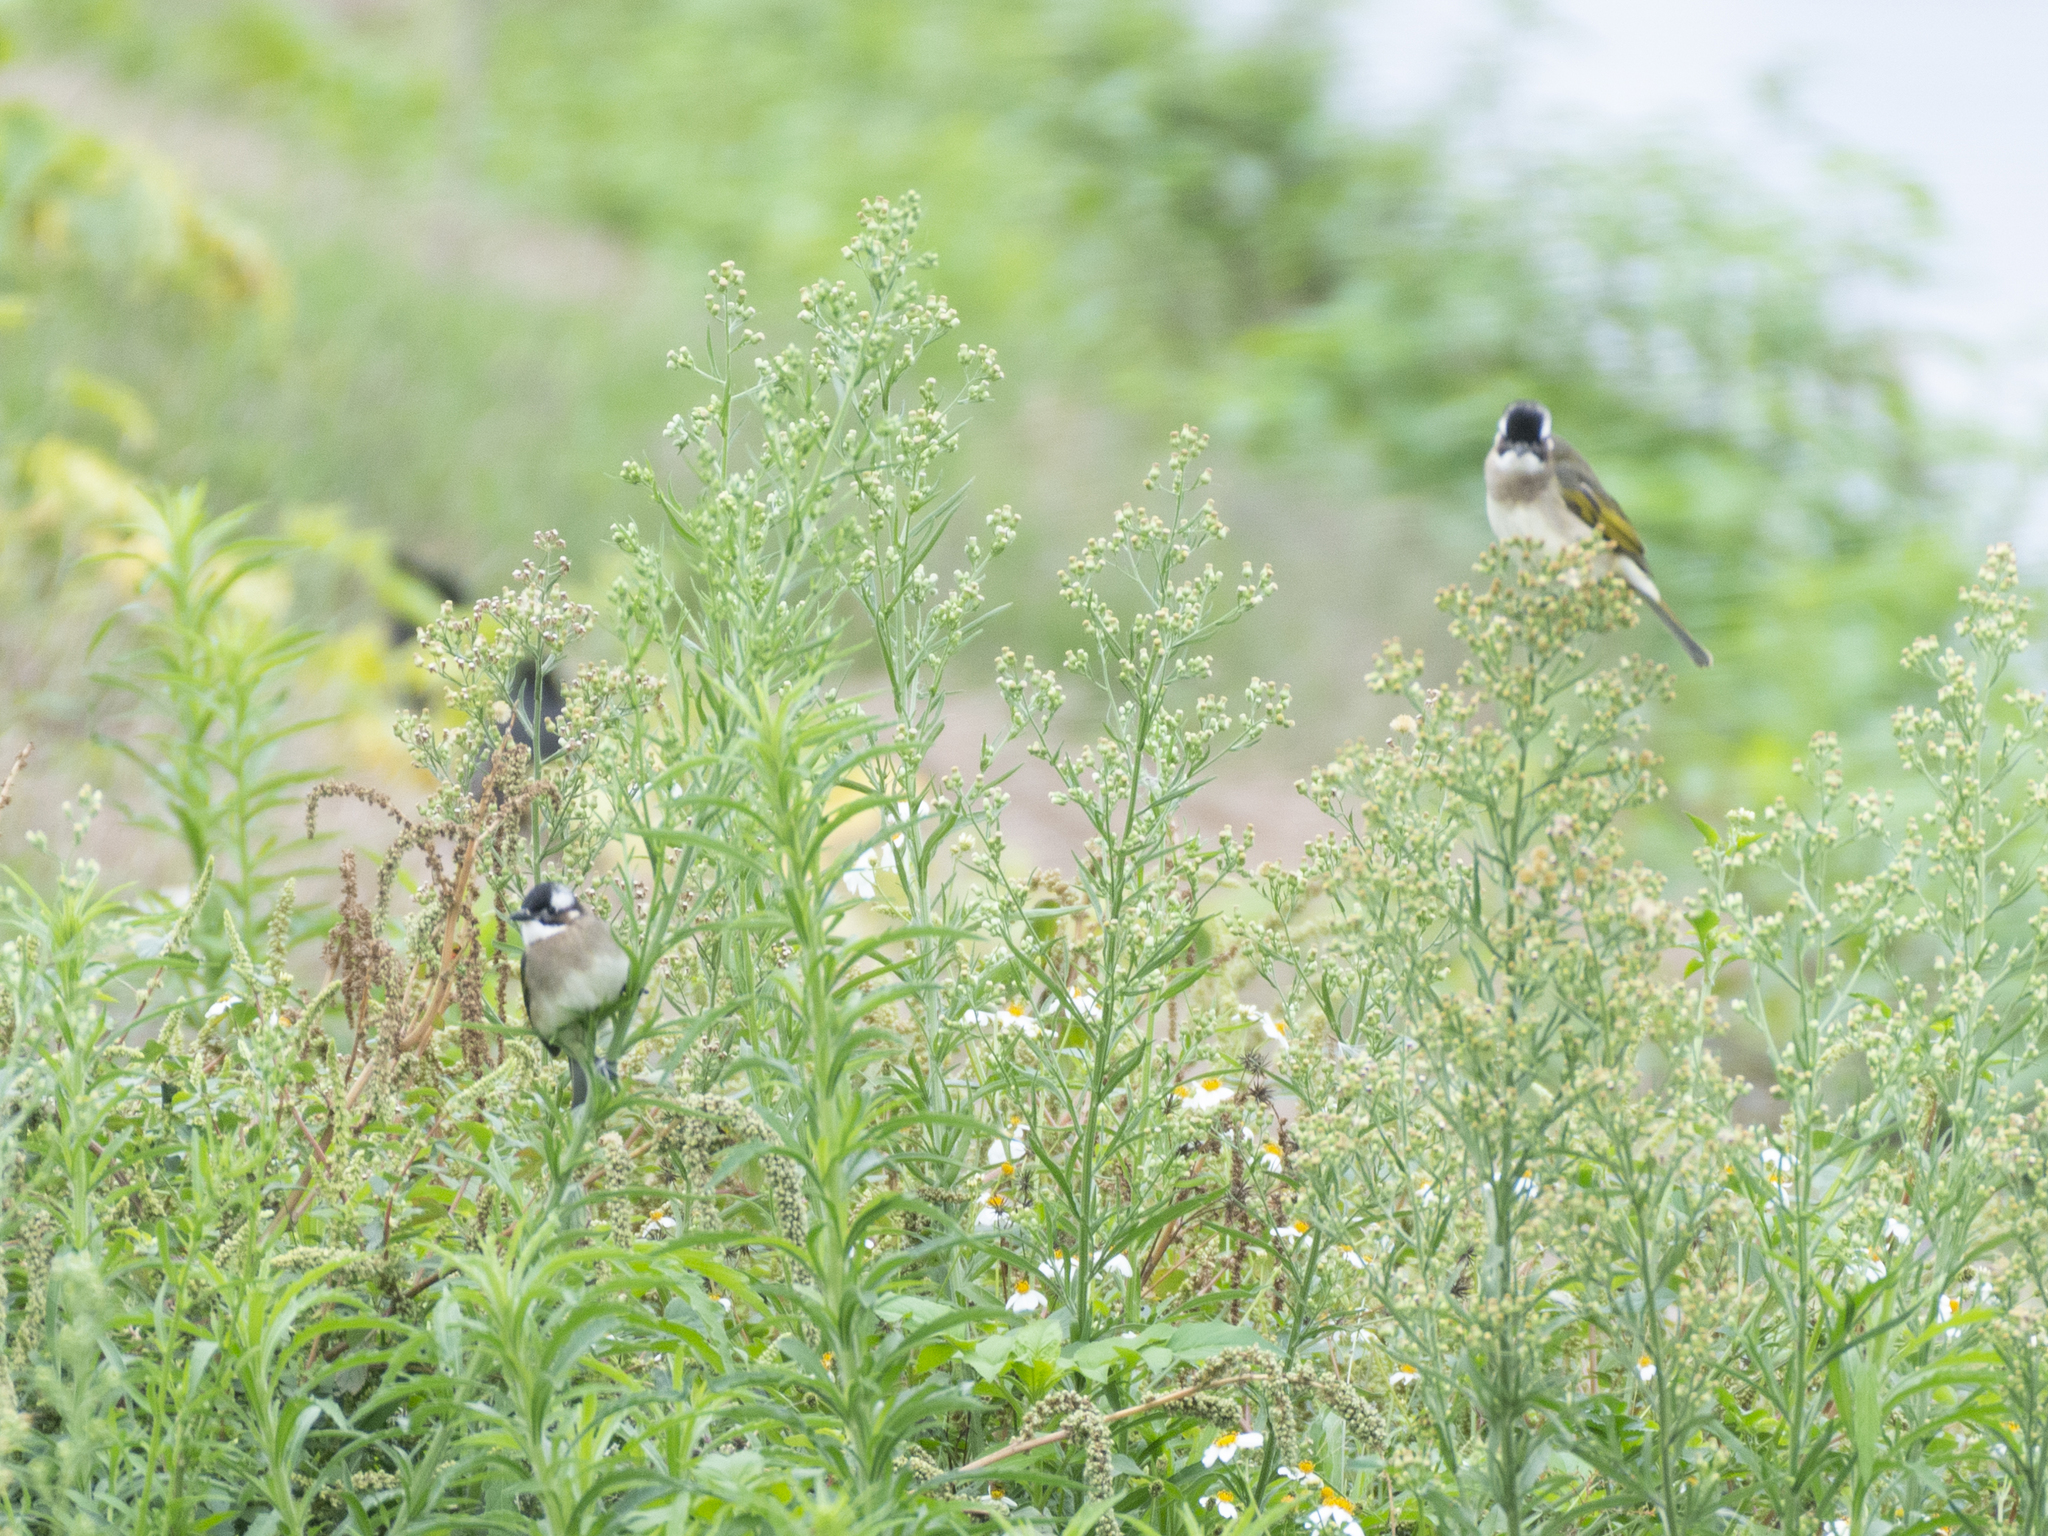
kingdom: Animalia
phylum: Chordata
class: Aves
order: Passeriformes
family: Pycnonotidae
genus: Pycnonotus
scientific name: Pycnonotus sinensis
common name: Light-vented bulbul
